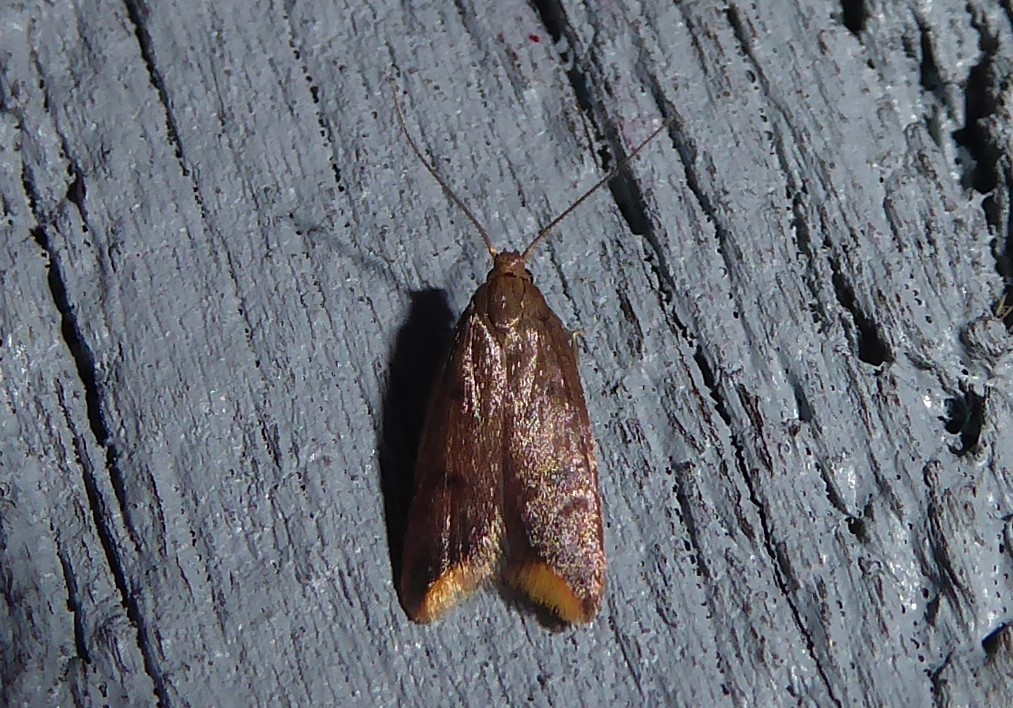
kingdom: Animalia
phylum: Arthropoda
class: Insecta
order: Lepidoptera
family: Oecophoridae
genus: Tachystola
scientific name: Tachystola acroxantha
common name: Ruddy streak
